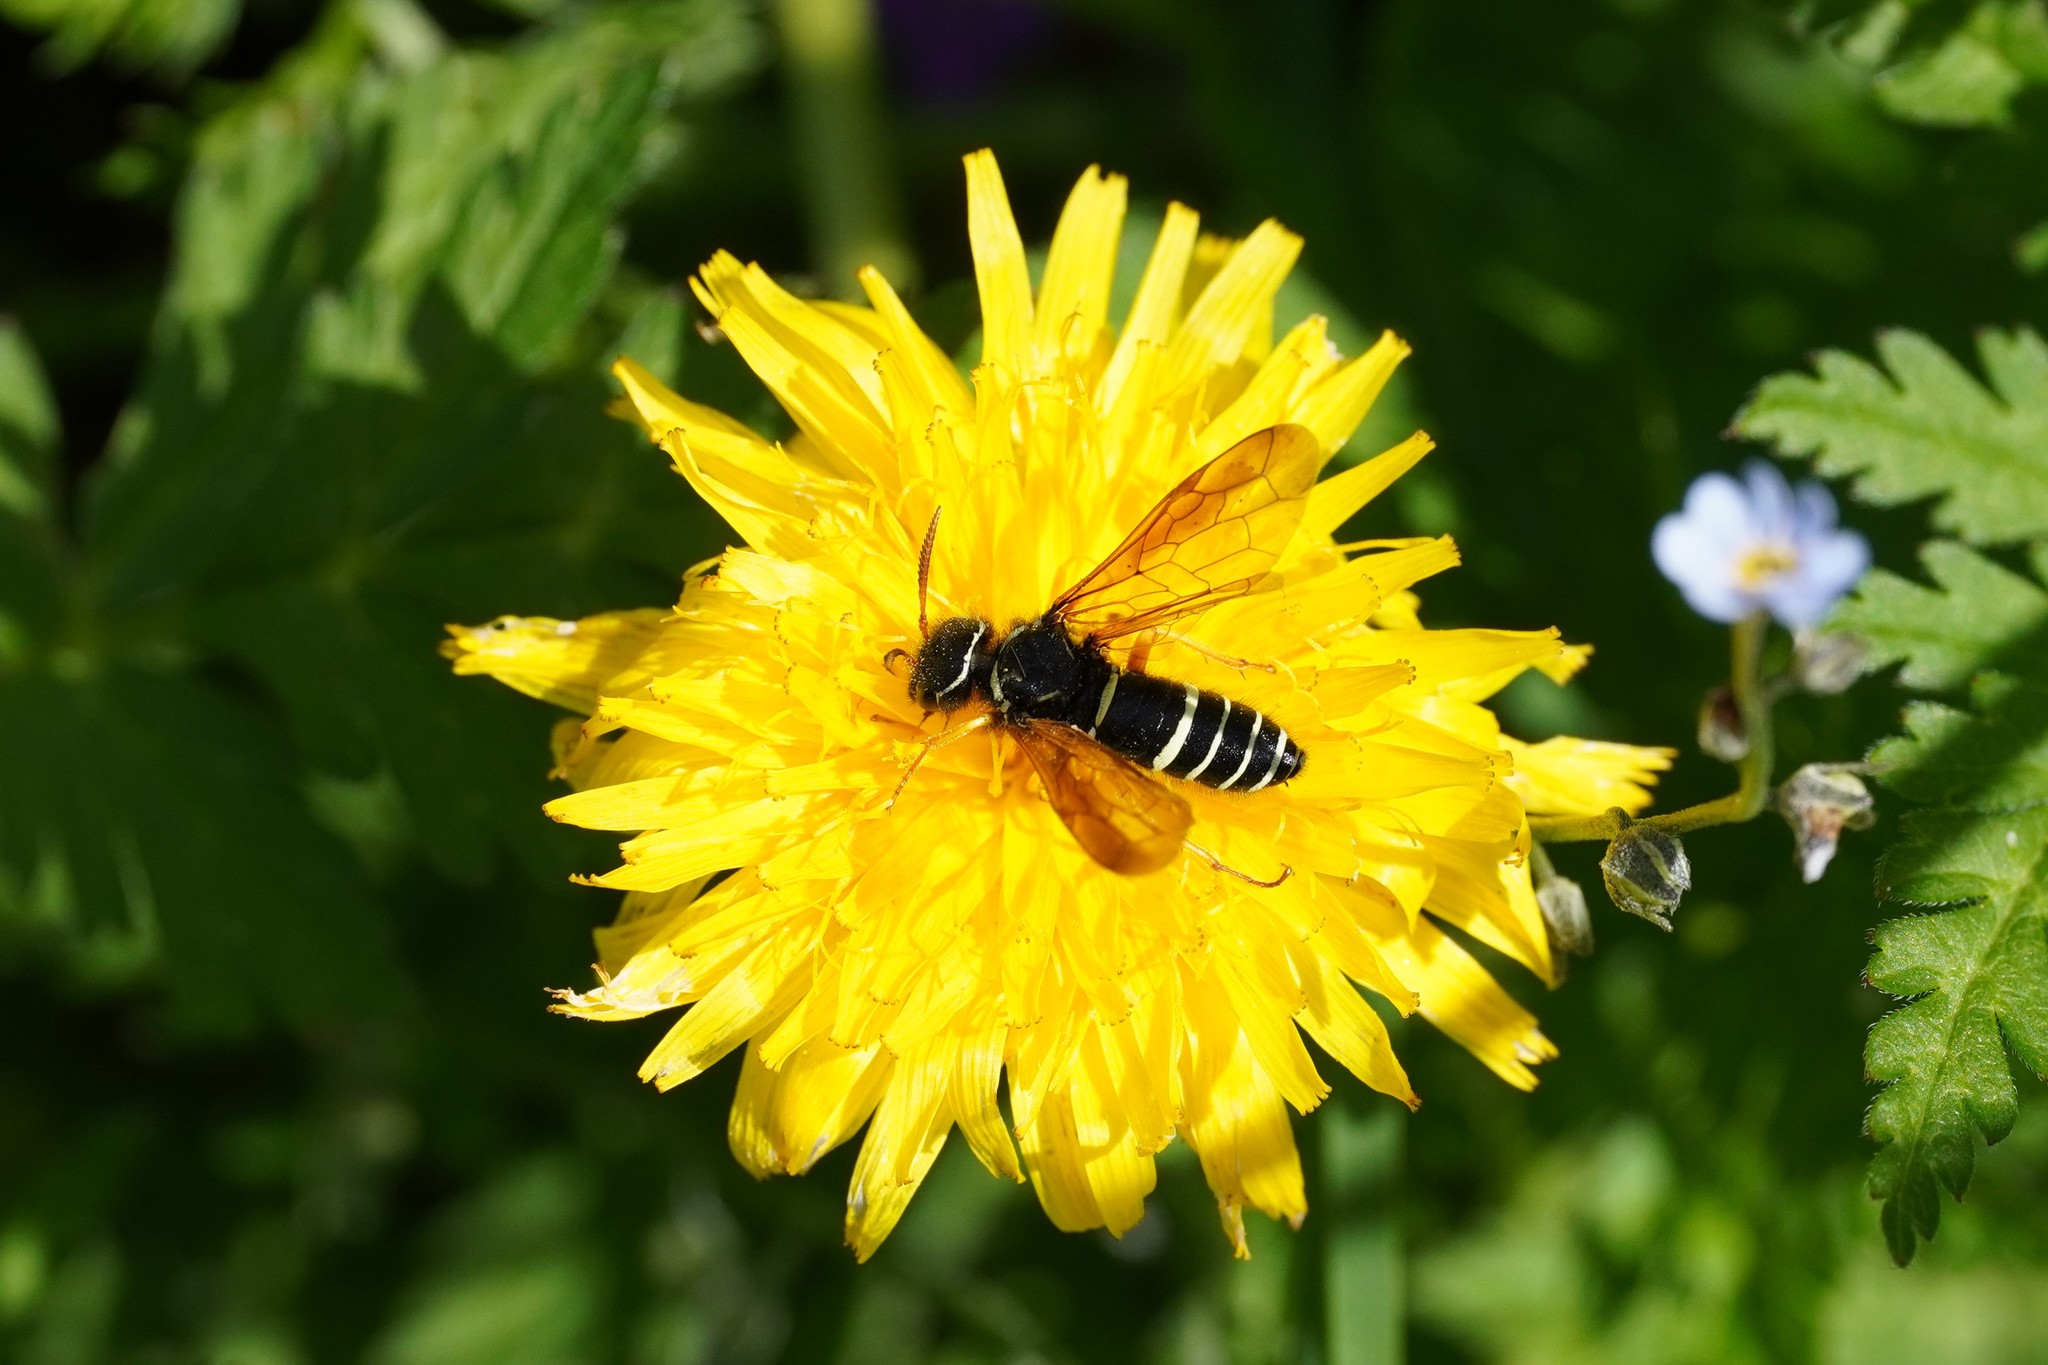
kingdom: Animalia
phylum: Arthropoda
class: Insecta
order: Hymenoptera
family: Megalodontesidae
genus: Megalodontes
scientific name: Megalodontes cephalotes
